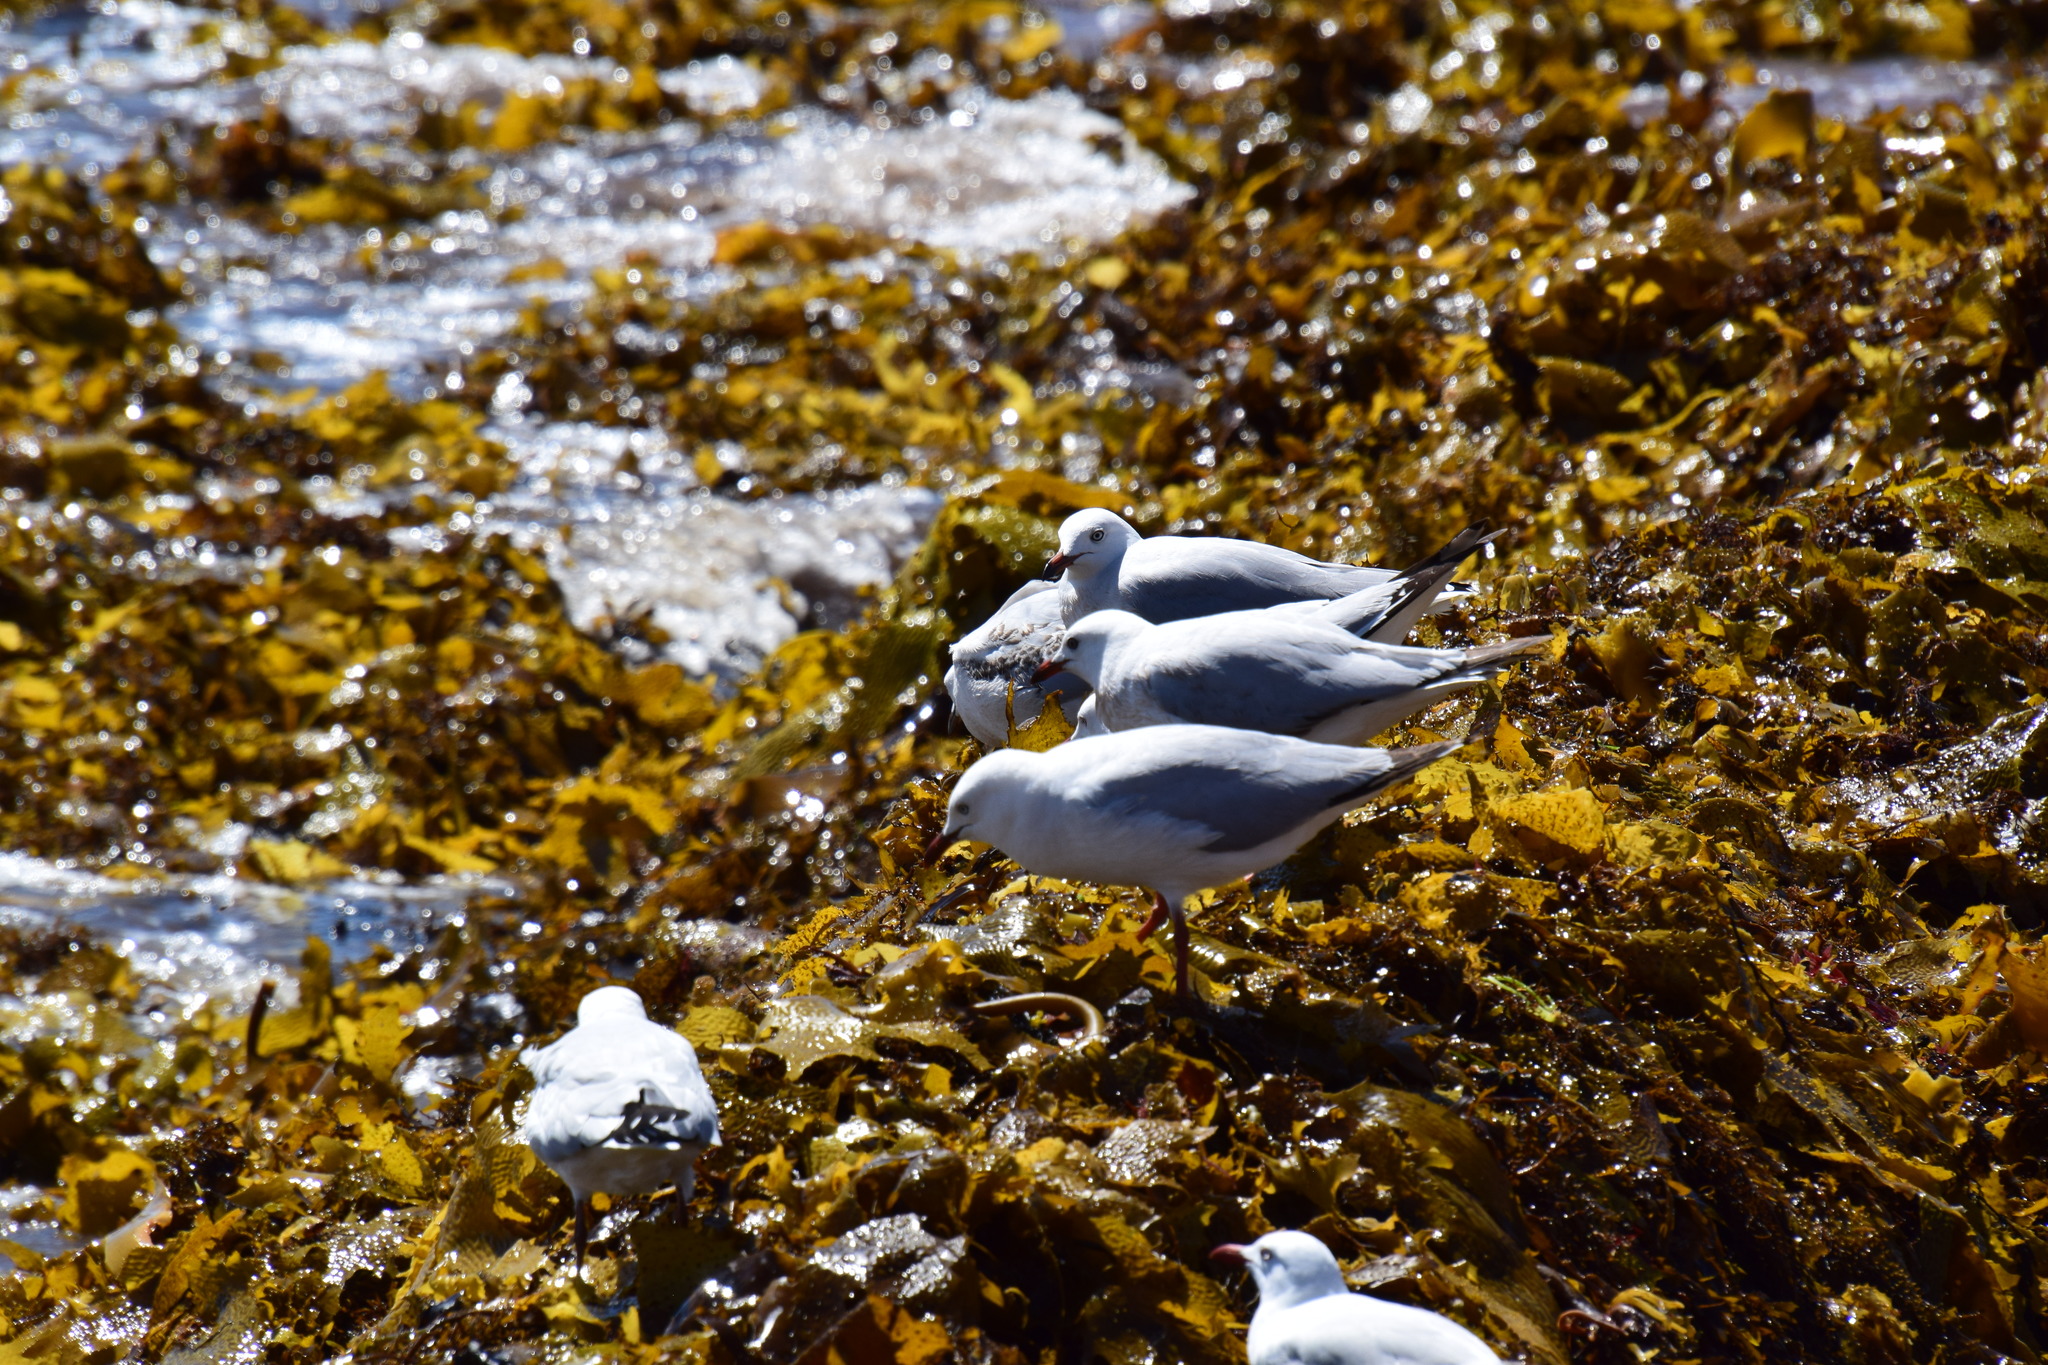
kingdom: Animalia
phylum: Chordata
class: Aves
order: Charadriiformes
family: Laridae
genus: Chroicocephalus
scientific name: Chroicocephalus novaehollandiae
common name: Silver gull
